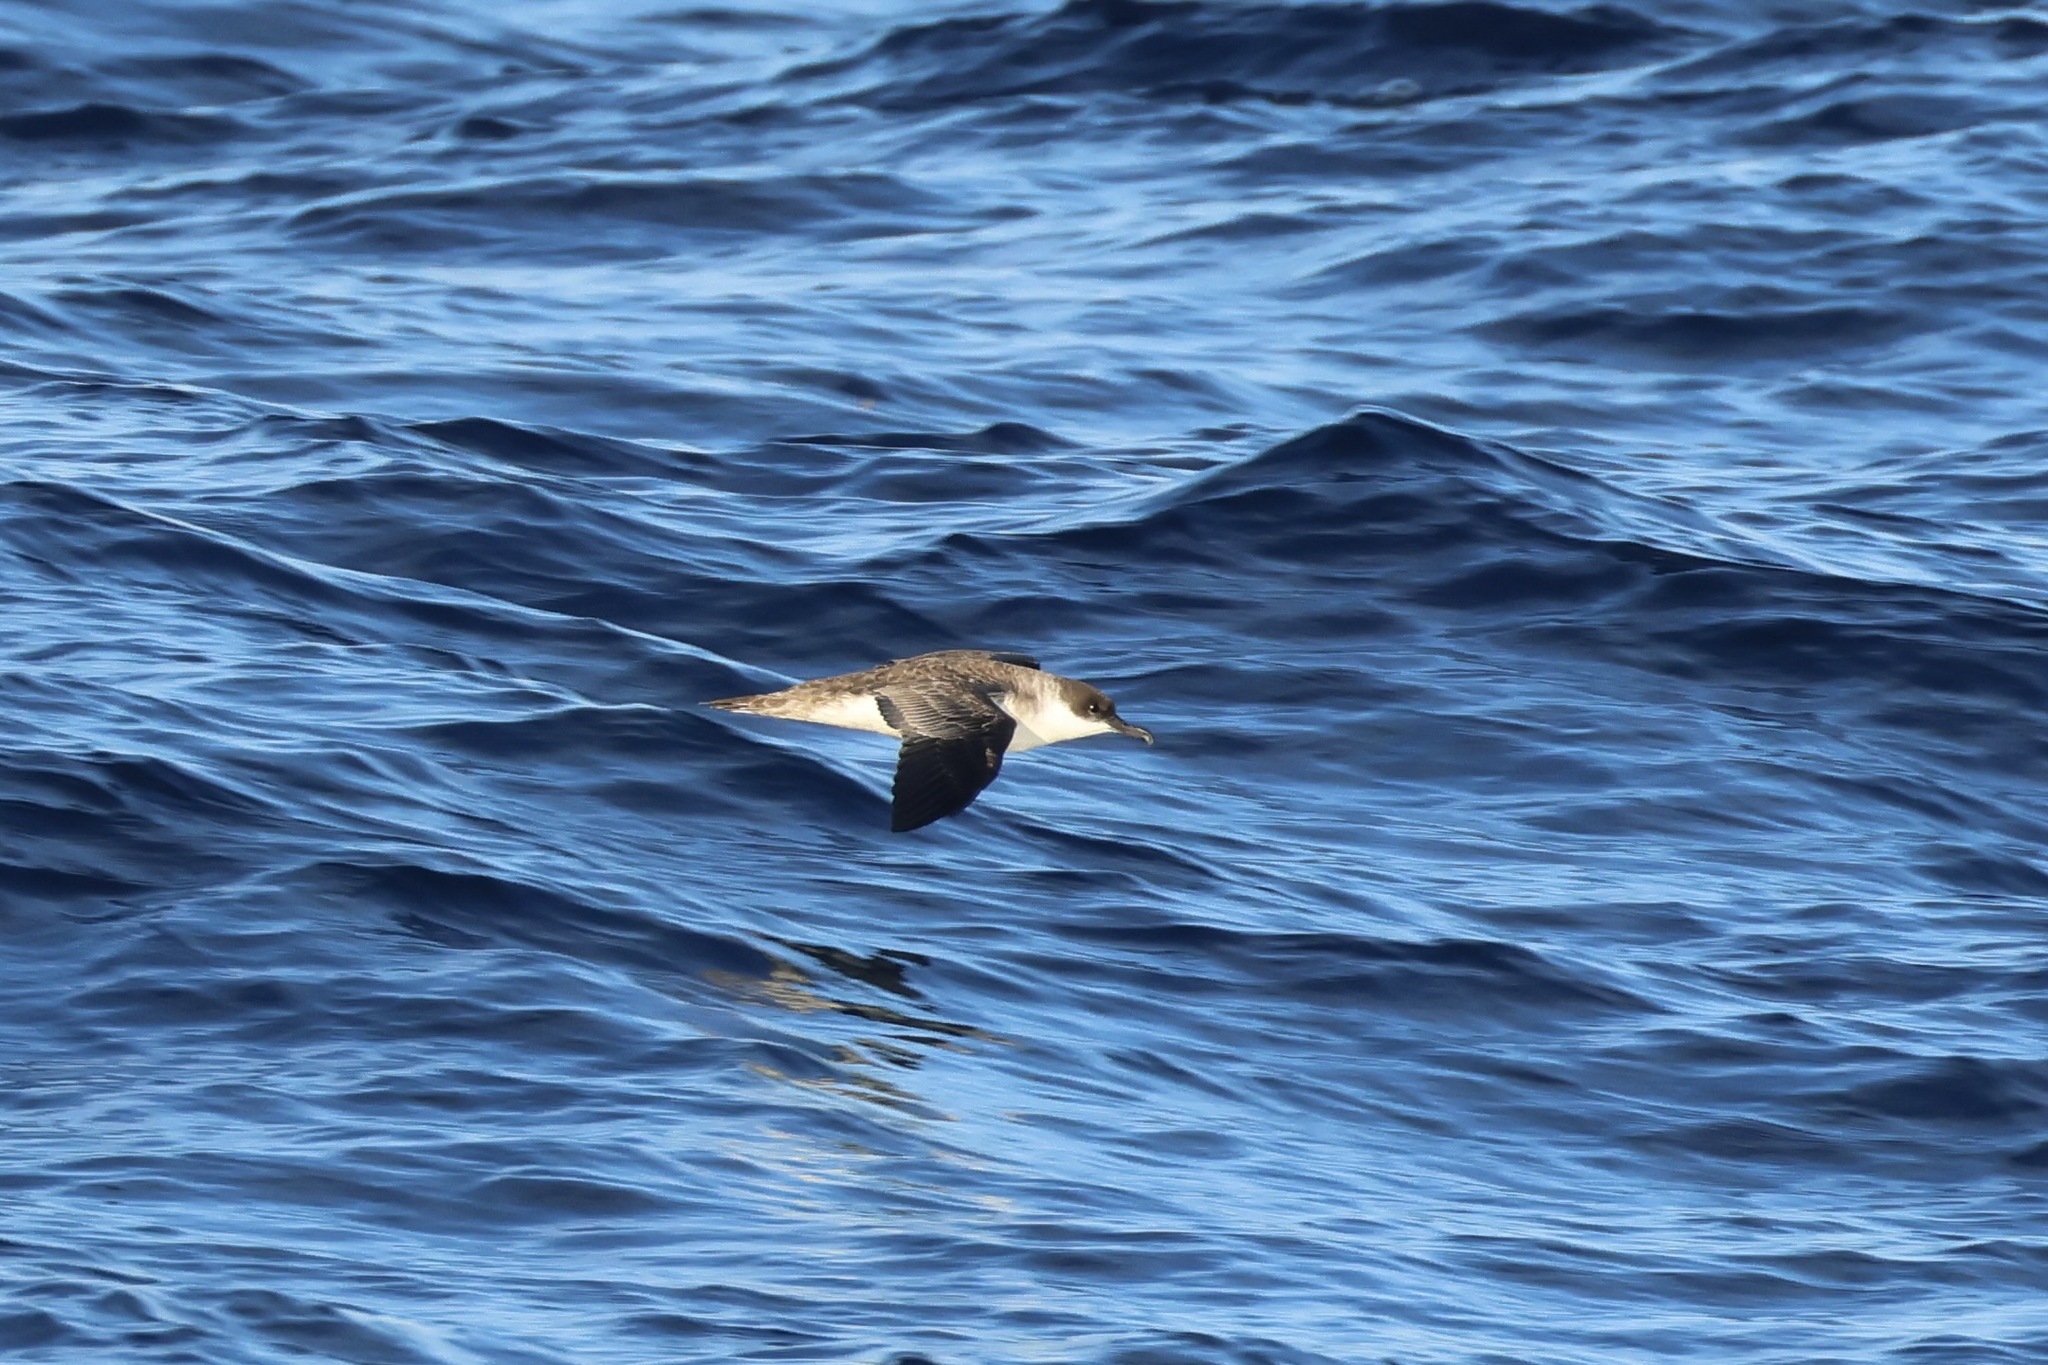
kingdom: Animalia
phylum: Chordata
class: Aves
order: Procellariiformes
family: Procellariidae
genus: Puffinus
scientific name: Puffinus gravis
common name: Great shearwater
